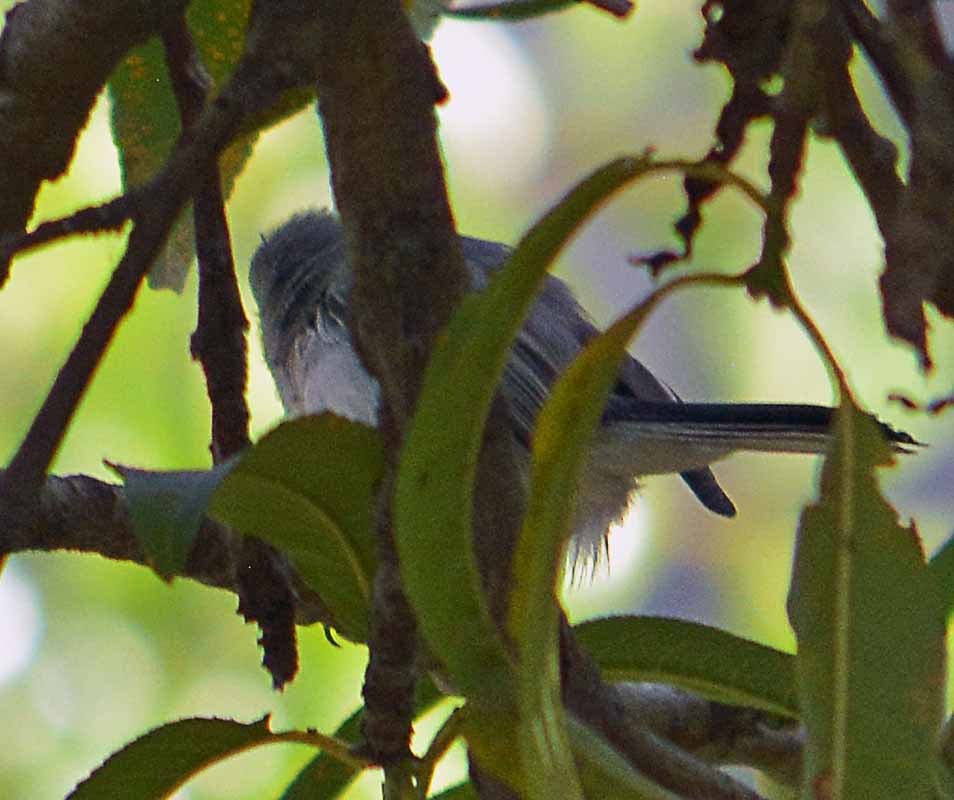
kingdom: Animalia
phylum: Chordata
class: Aves
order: Passeriformes
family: Polioptilidae
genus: Polioptila
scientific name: Polioptila caerulea
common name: Blue-gray gnatcatcher
